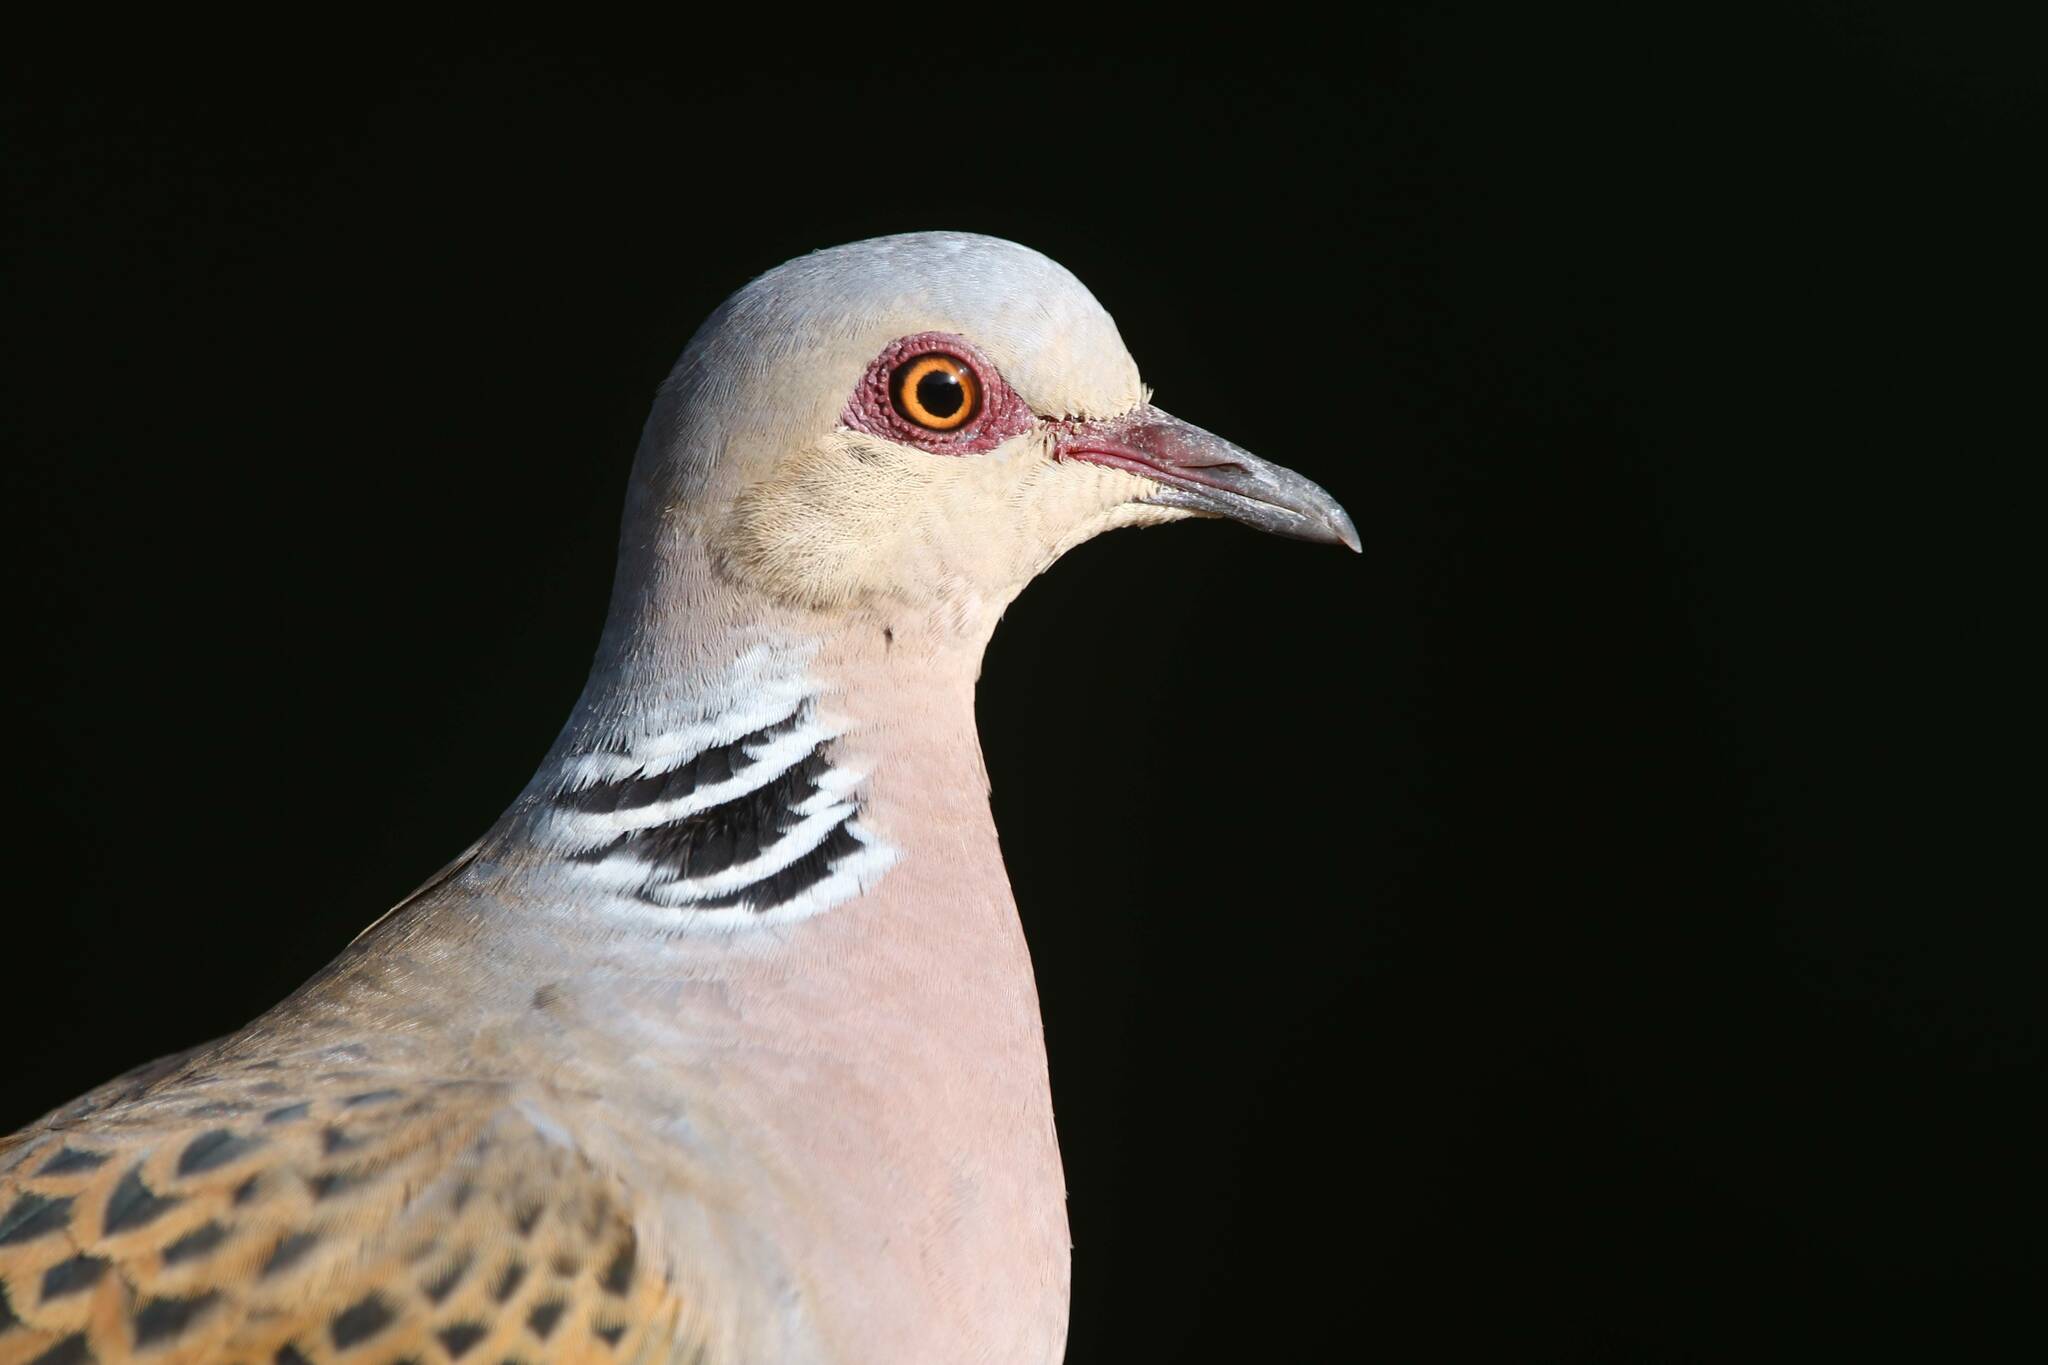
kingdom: Animalia
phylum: Chordata
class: Aves
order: Columbiformes
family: Columbidae
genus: Streptopelia
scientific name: Streptopelia turtur
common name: European turtle dove
